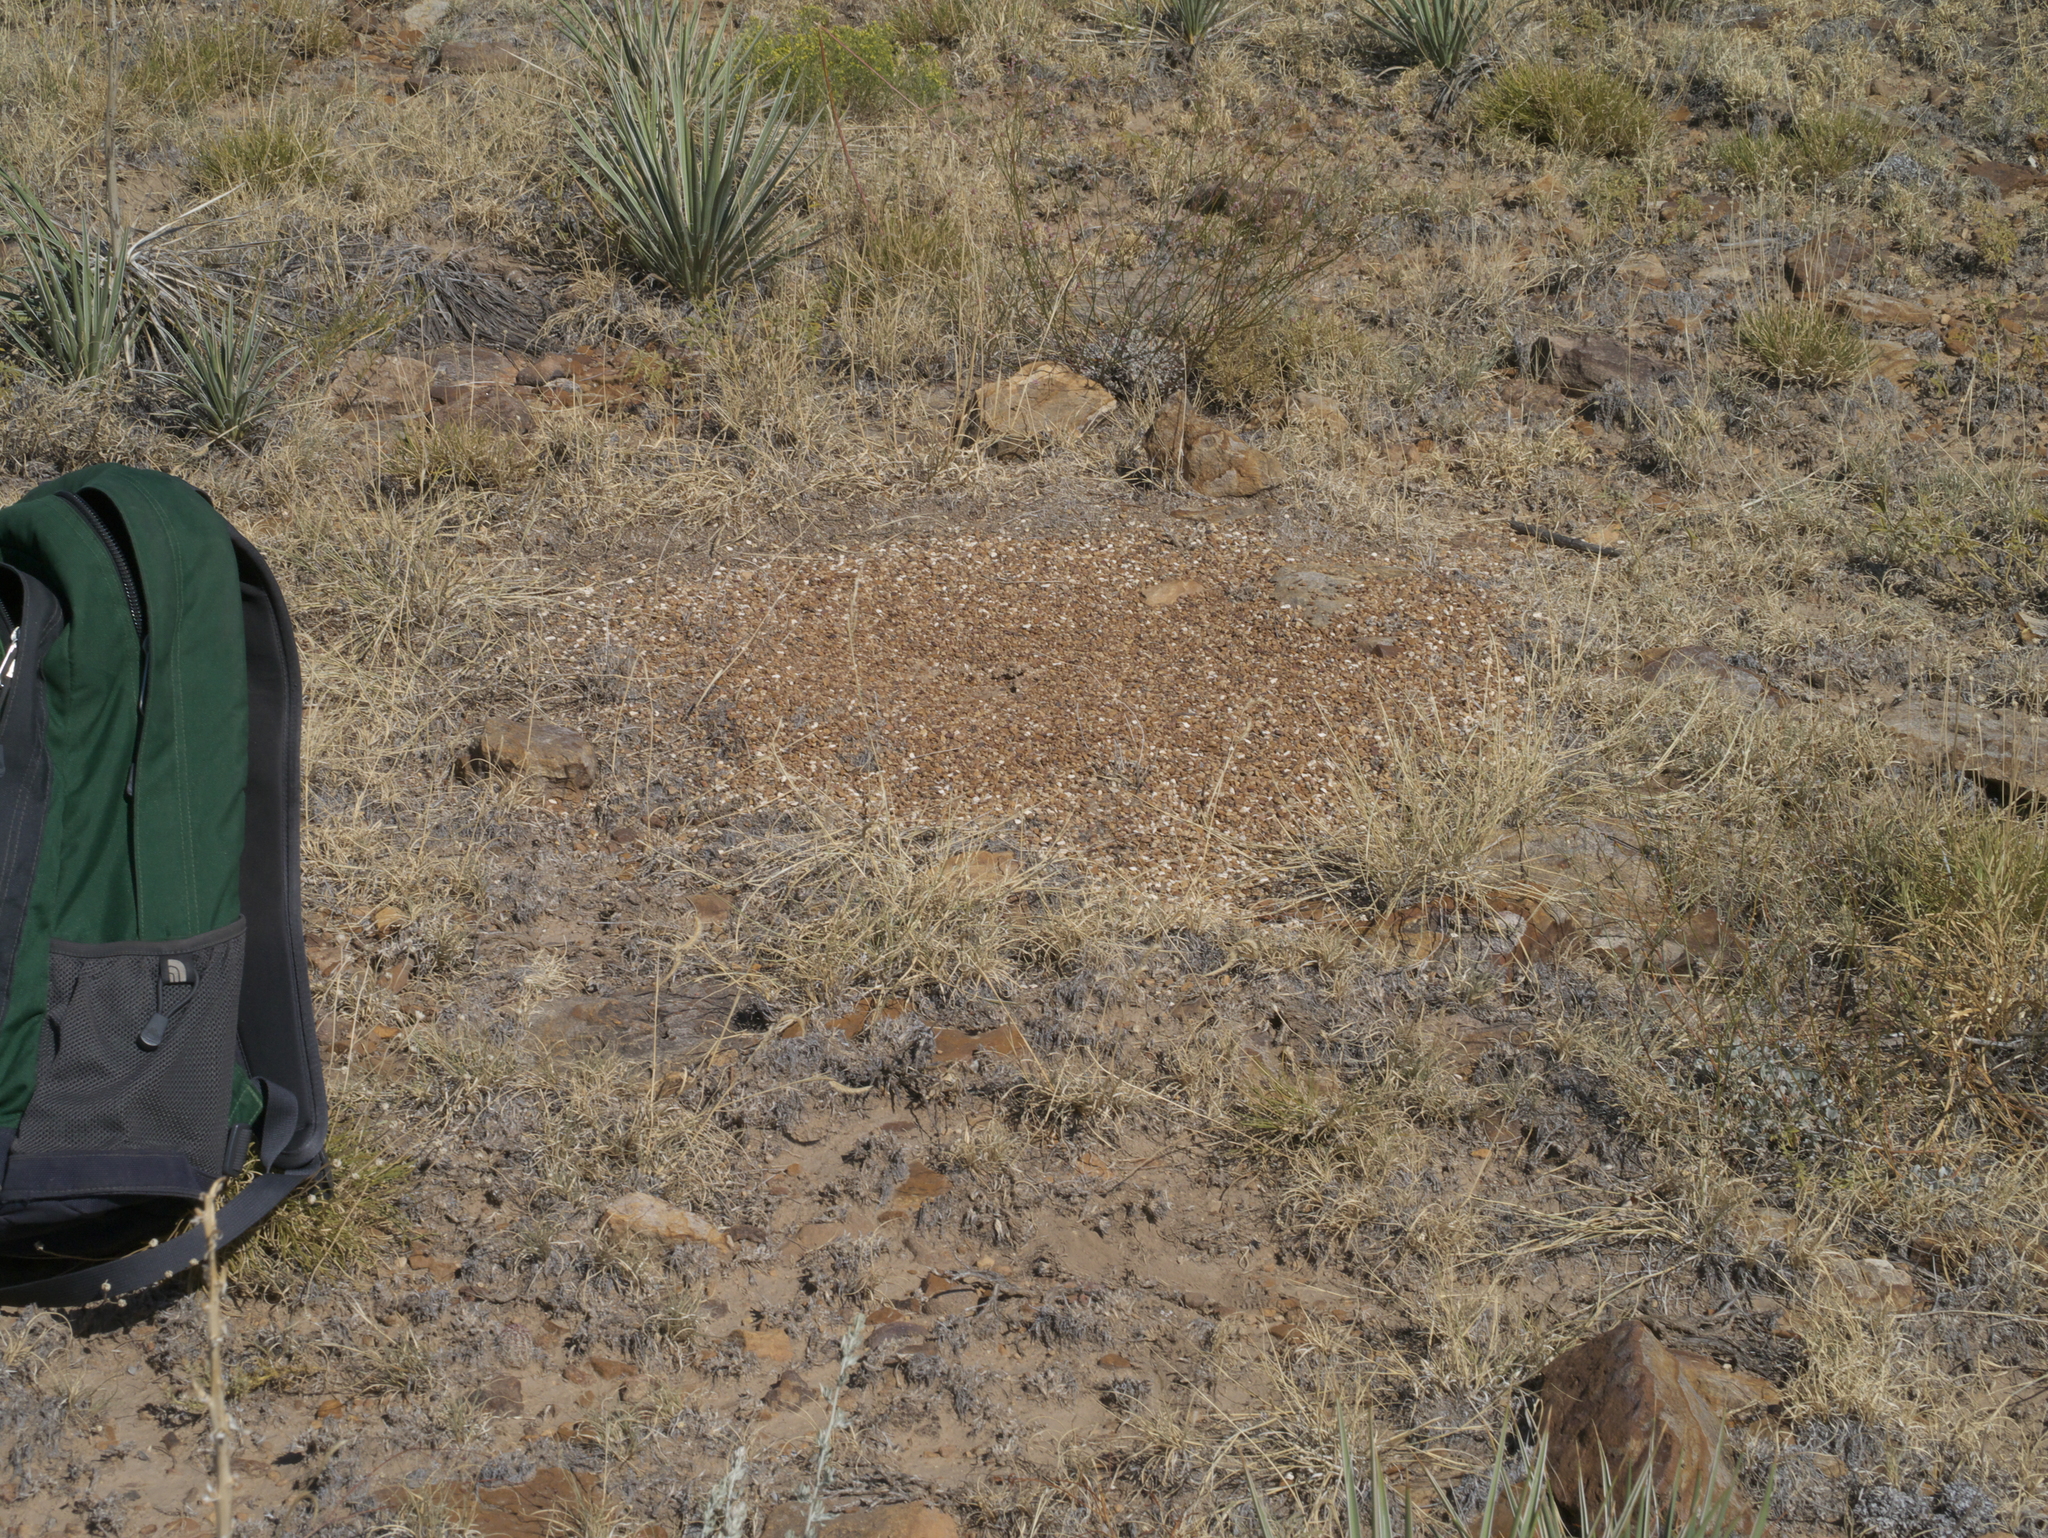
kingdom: Animalia
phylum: Arthropoda
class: Insecta
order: Hymenoptera
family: Formicidae
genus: Pogonomyrmex
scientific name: Pogonomyrmex
